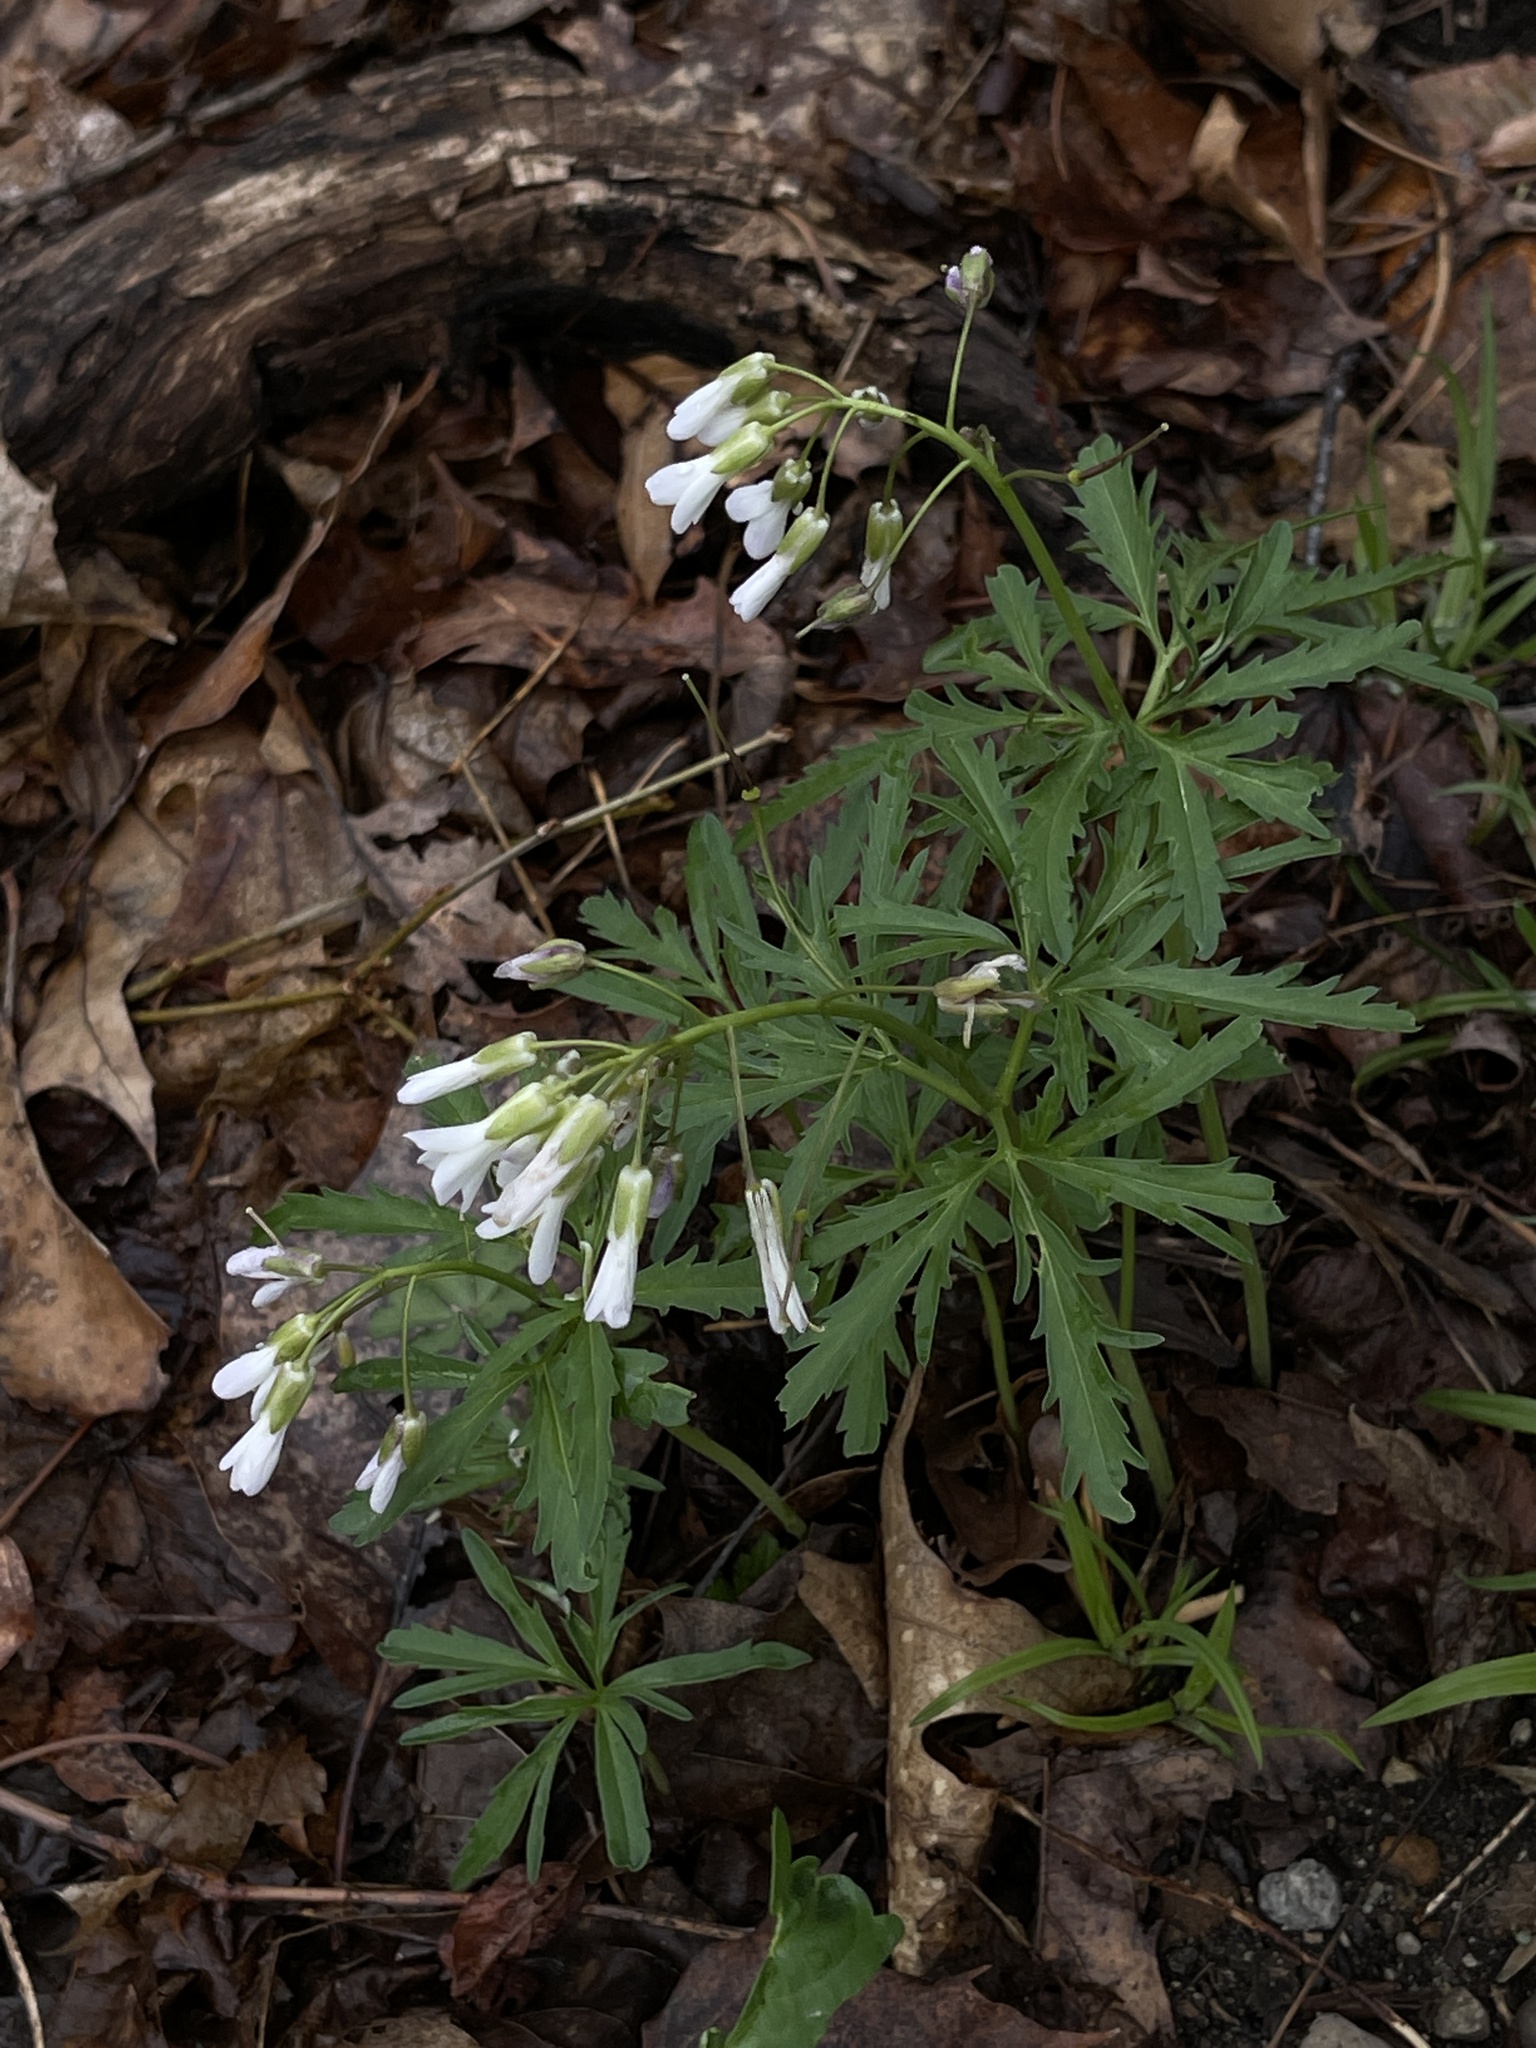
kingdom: Plantae
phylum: Tracheophyta
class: Magnoliopsida
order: Brassicales
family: Brassicaceae
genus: Cardamine
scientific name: Cardamine concatenata
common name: Cut-leaf toothcup
